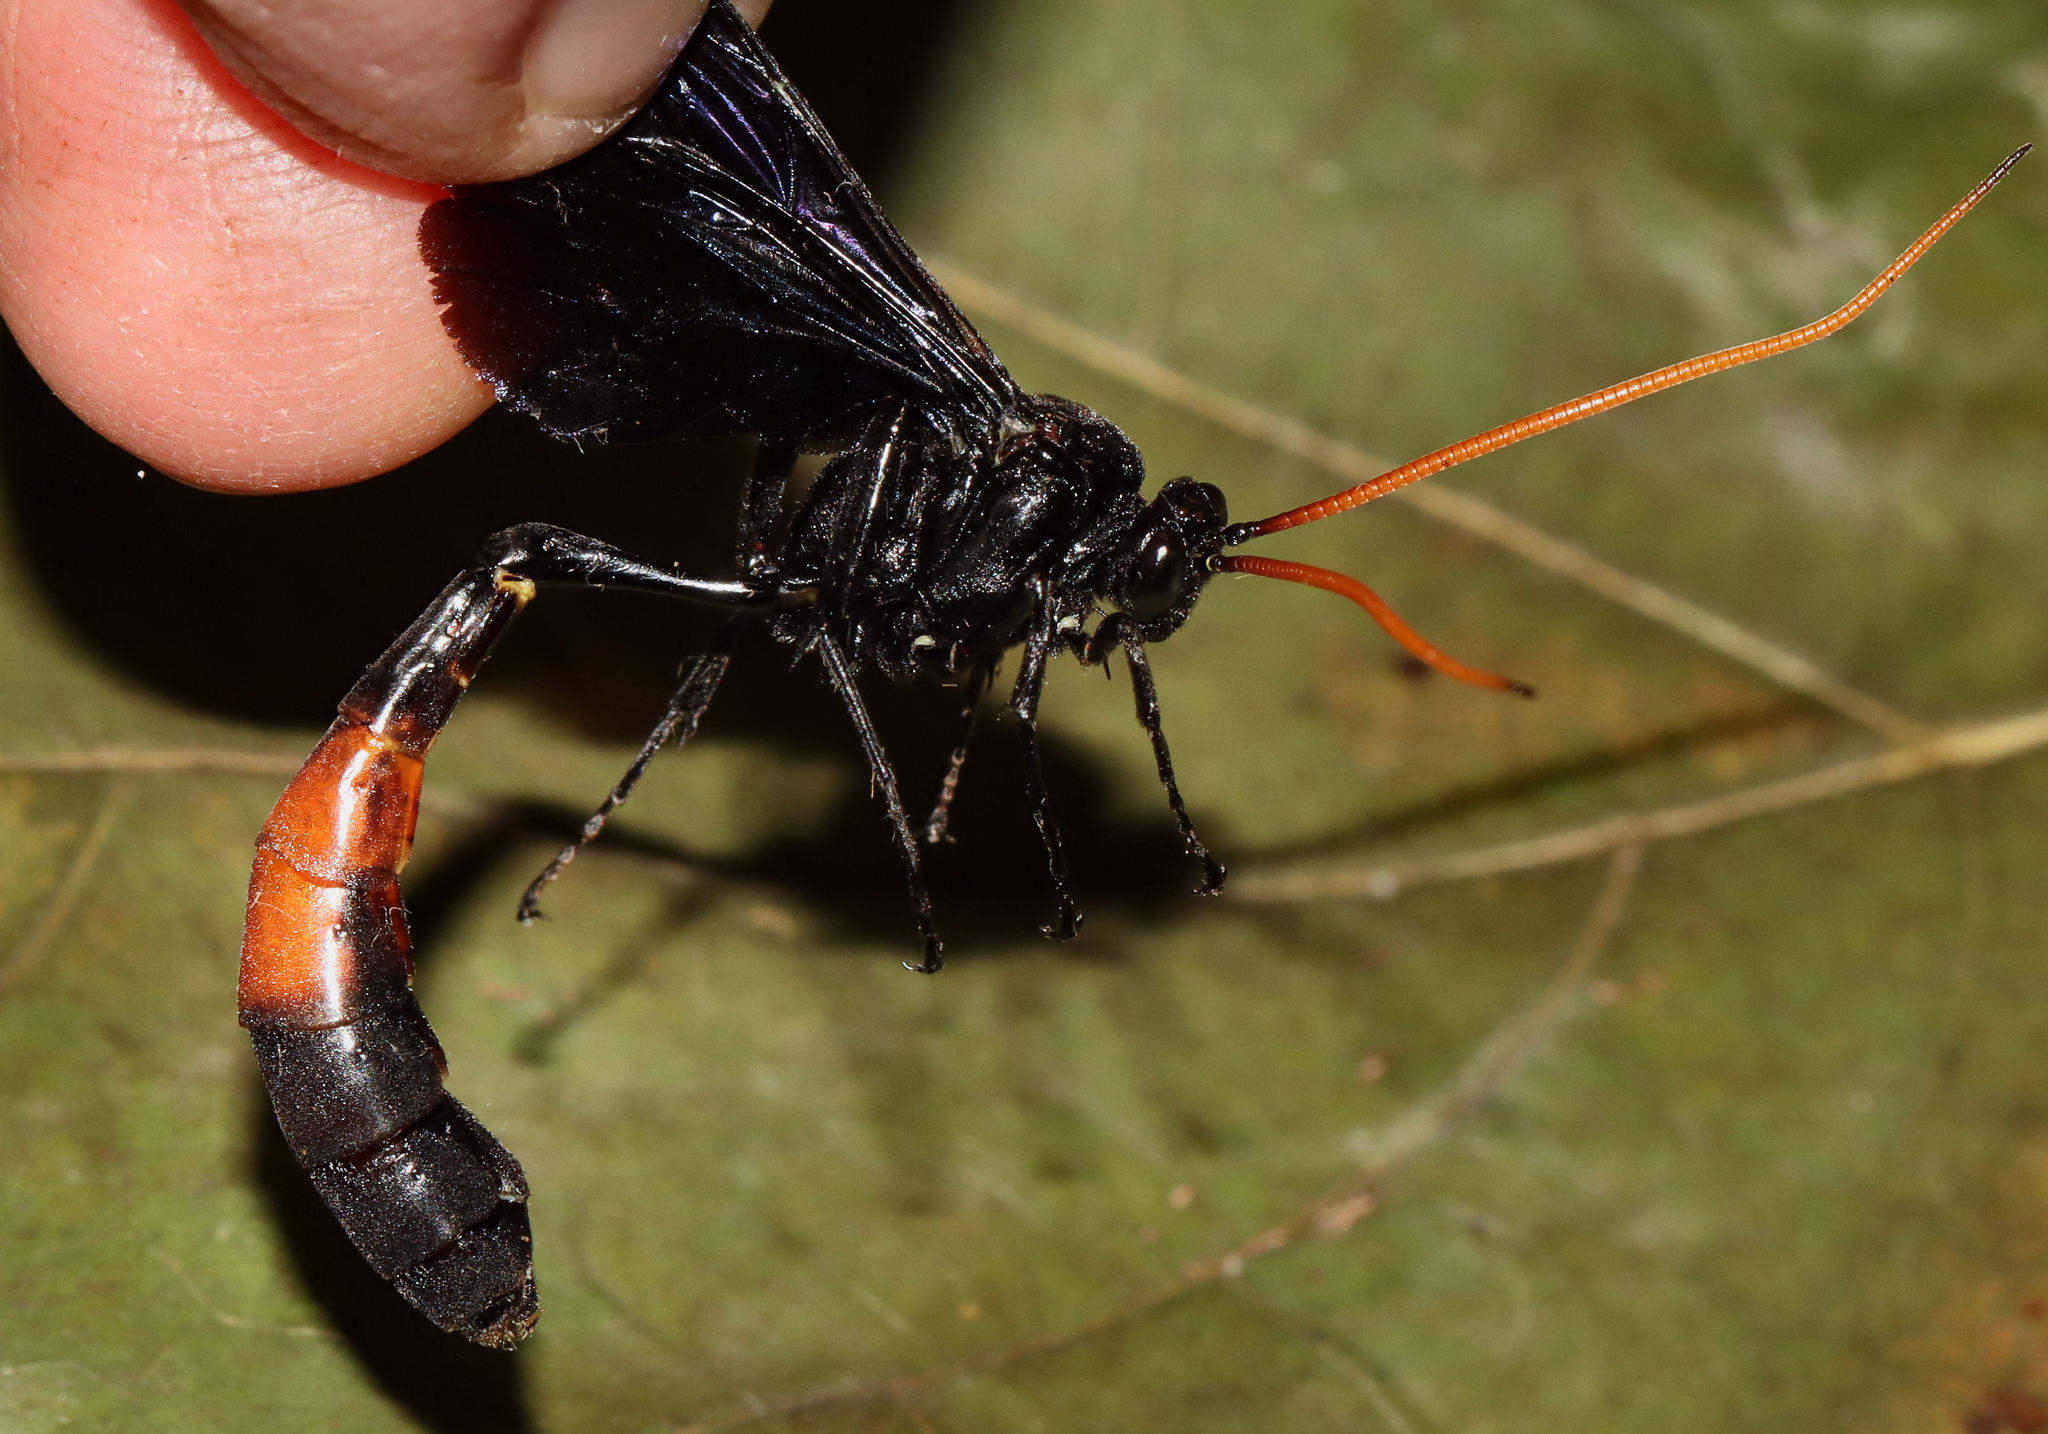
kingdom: Animalia
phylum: Arthropoda
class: Insecta
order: Hymenoptera
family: Ichneumonidae
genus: Thyreodon
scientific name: Thyreodon fernaldi
